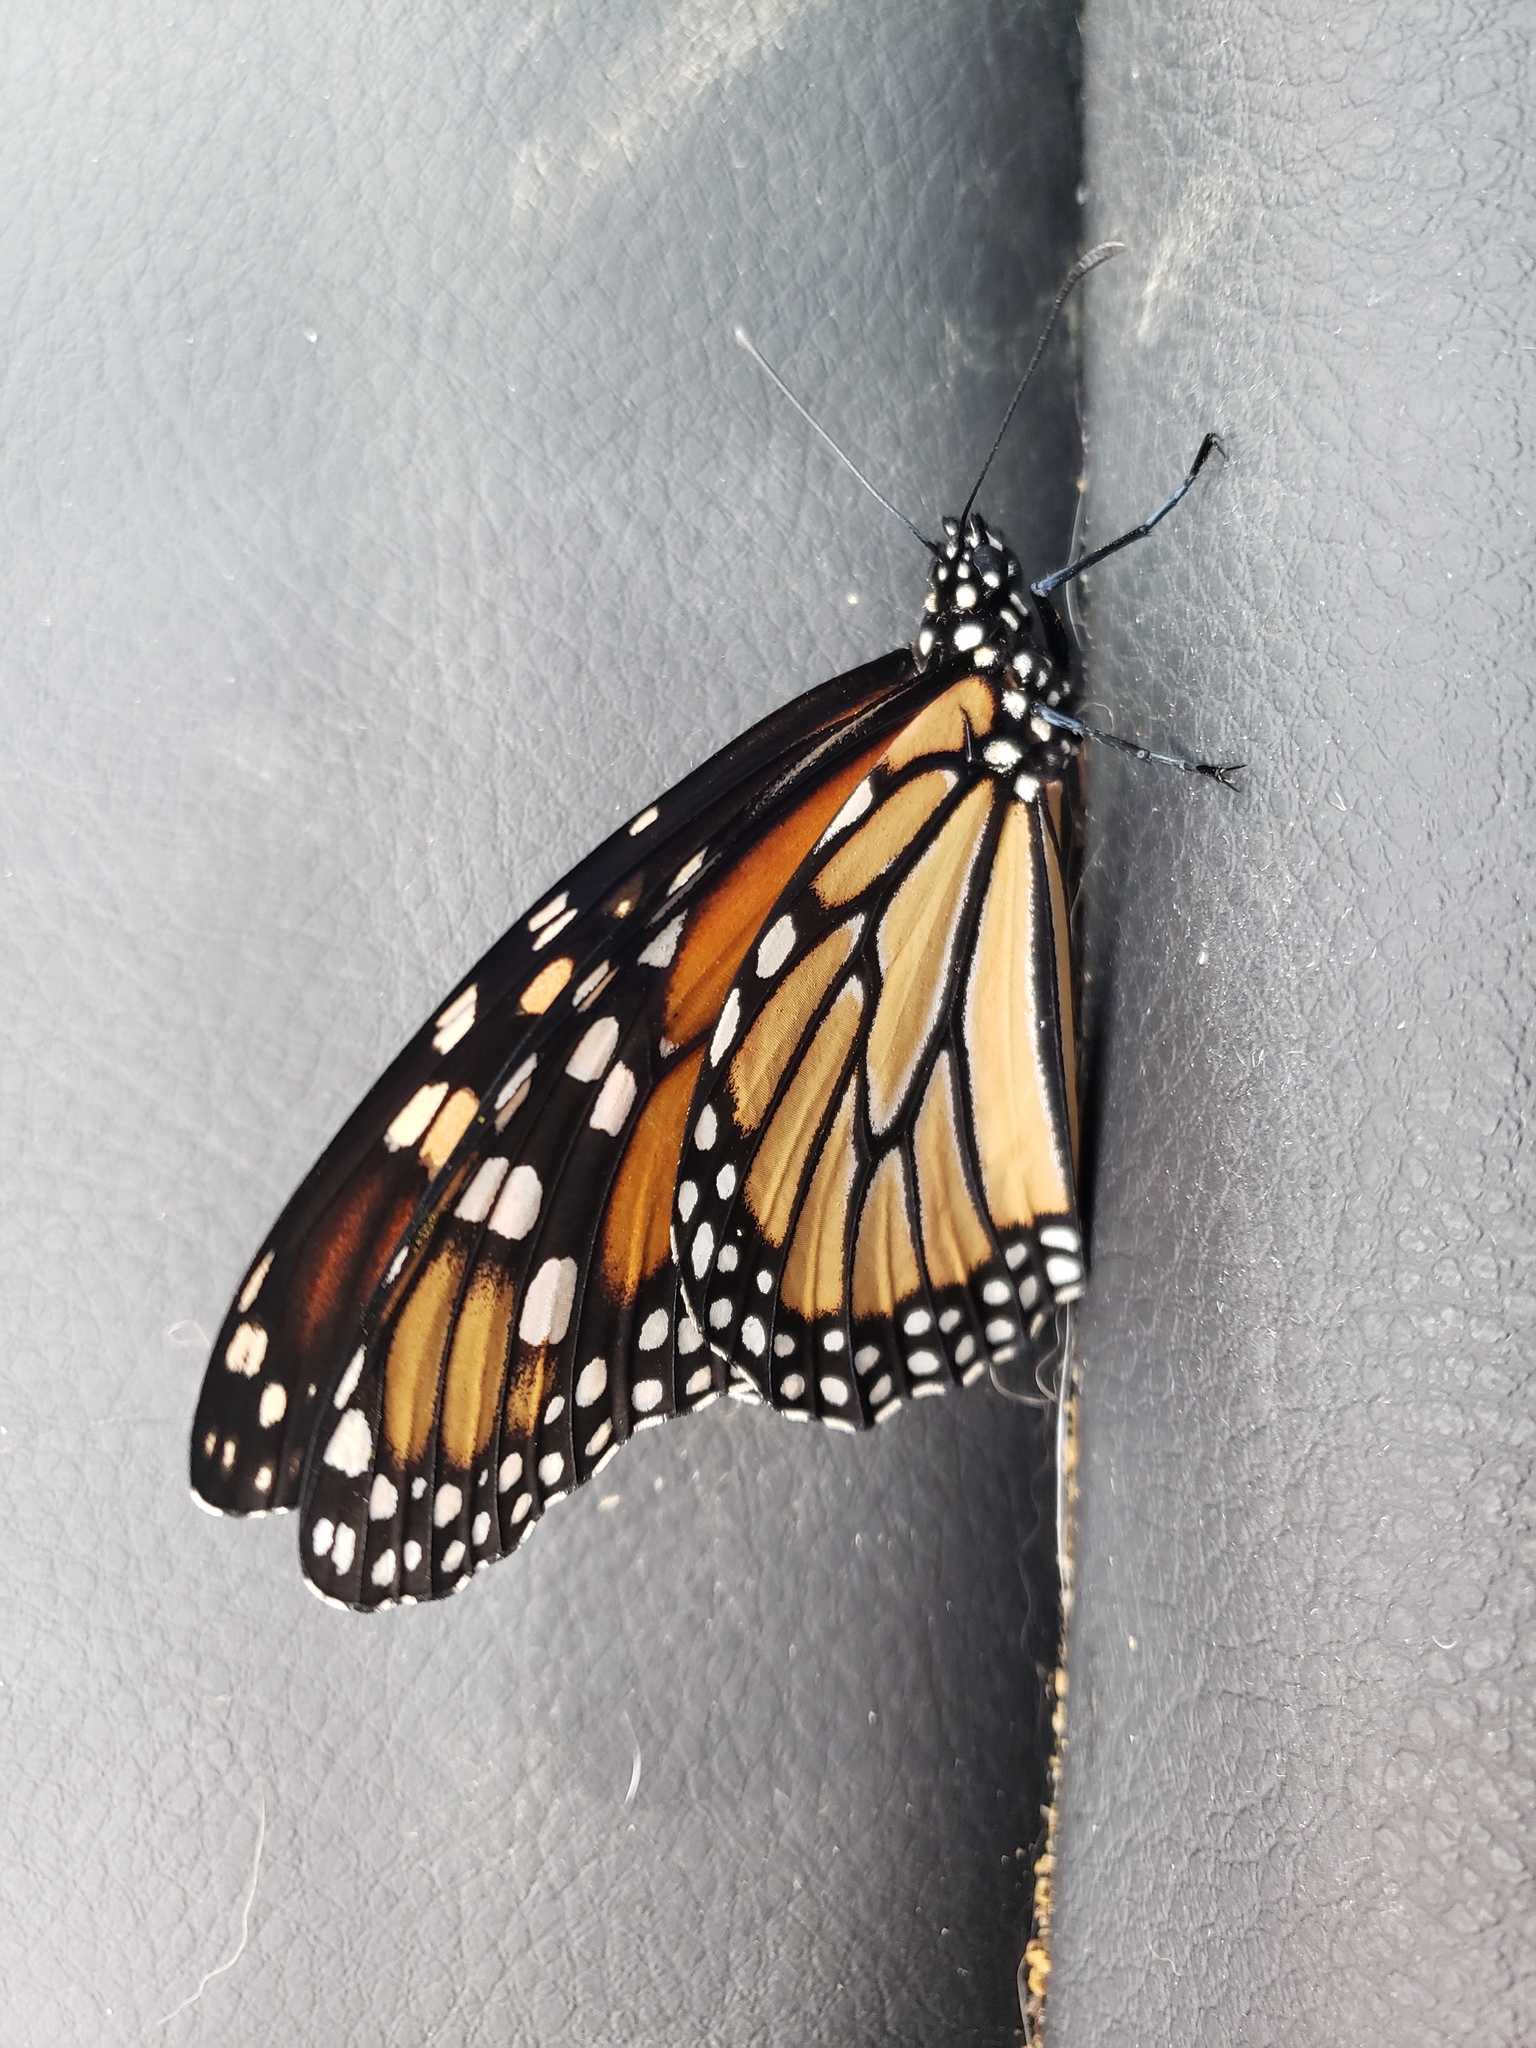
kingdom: Animalia
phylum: Arthropoda
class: Insecta
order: Lepidoptera
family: Nymphalidae
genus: Danaus
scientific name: Danaus plexippus
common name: Monarch
